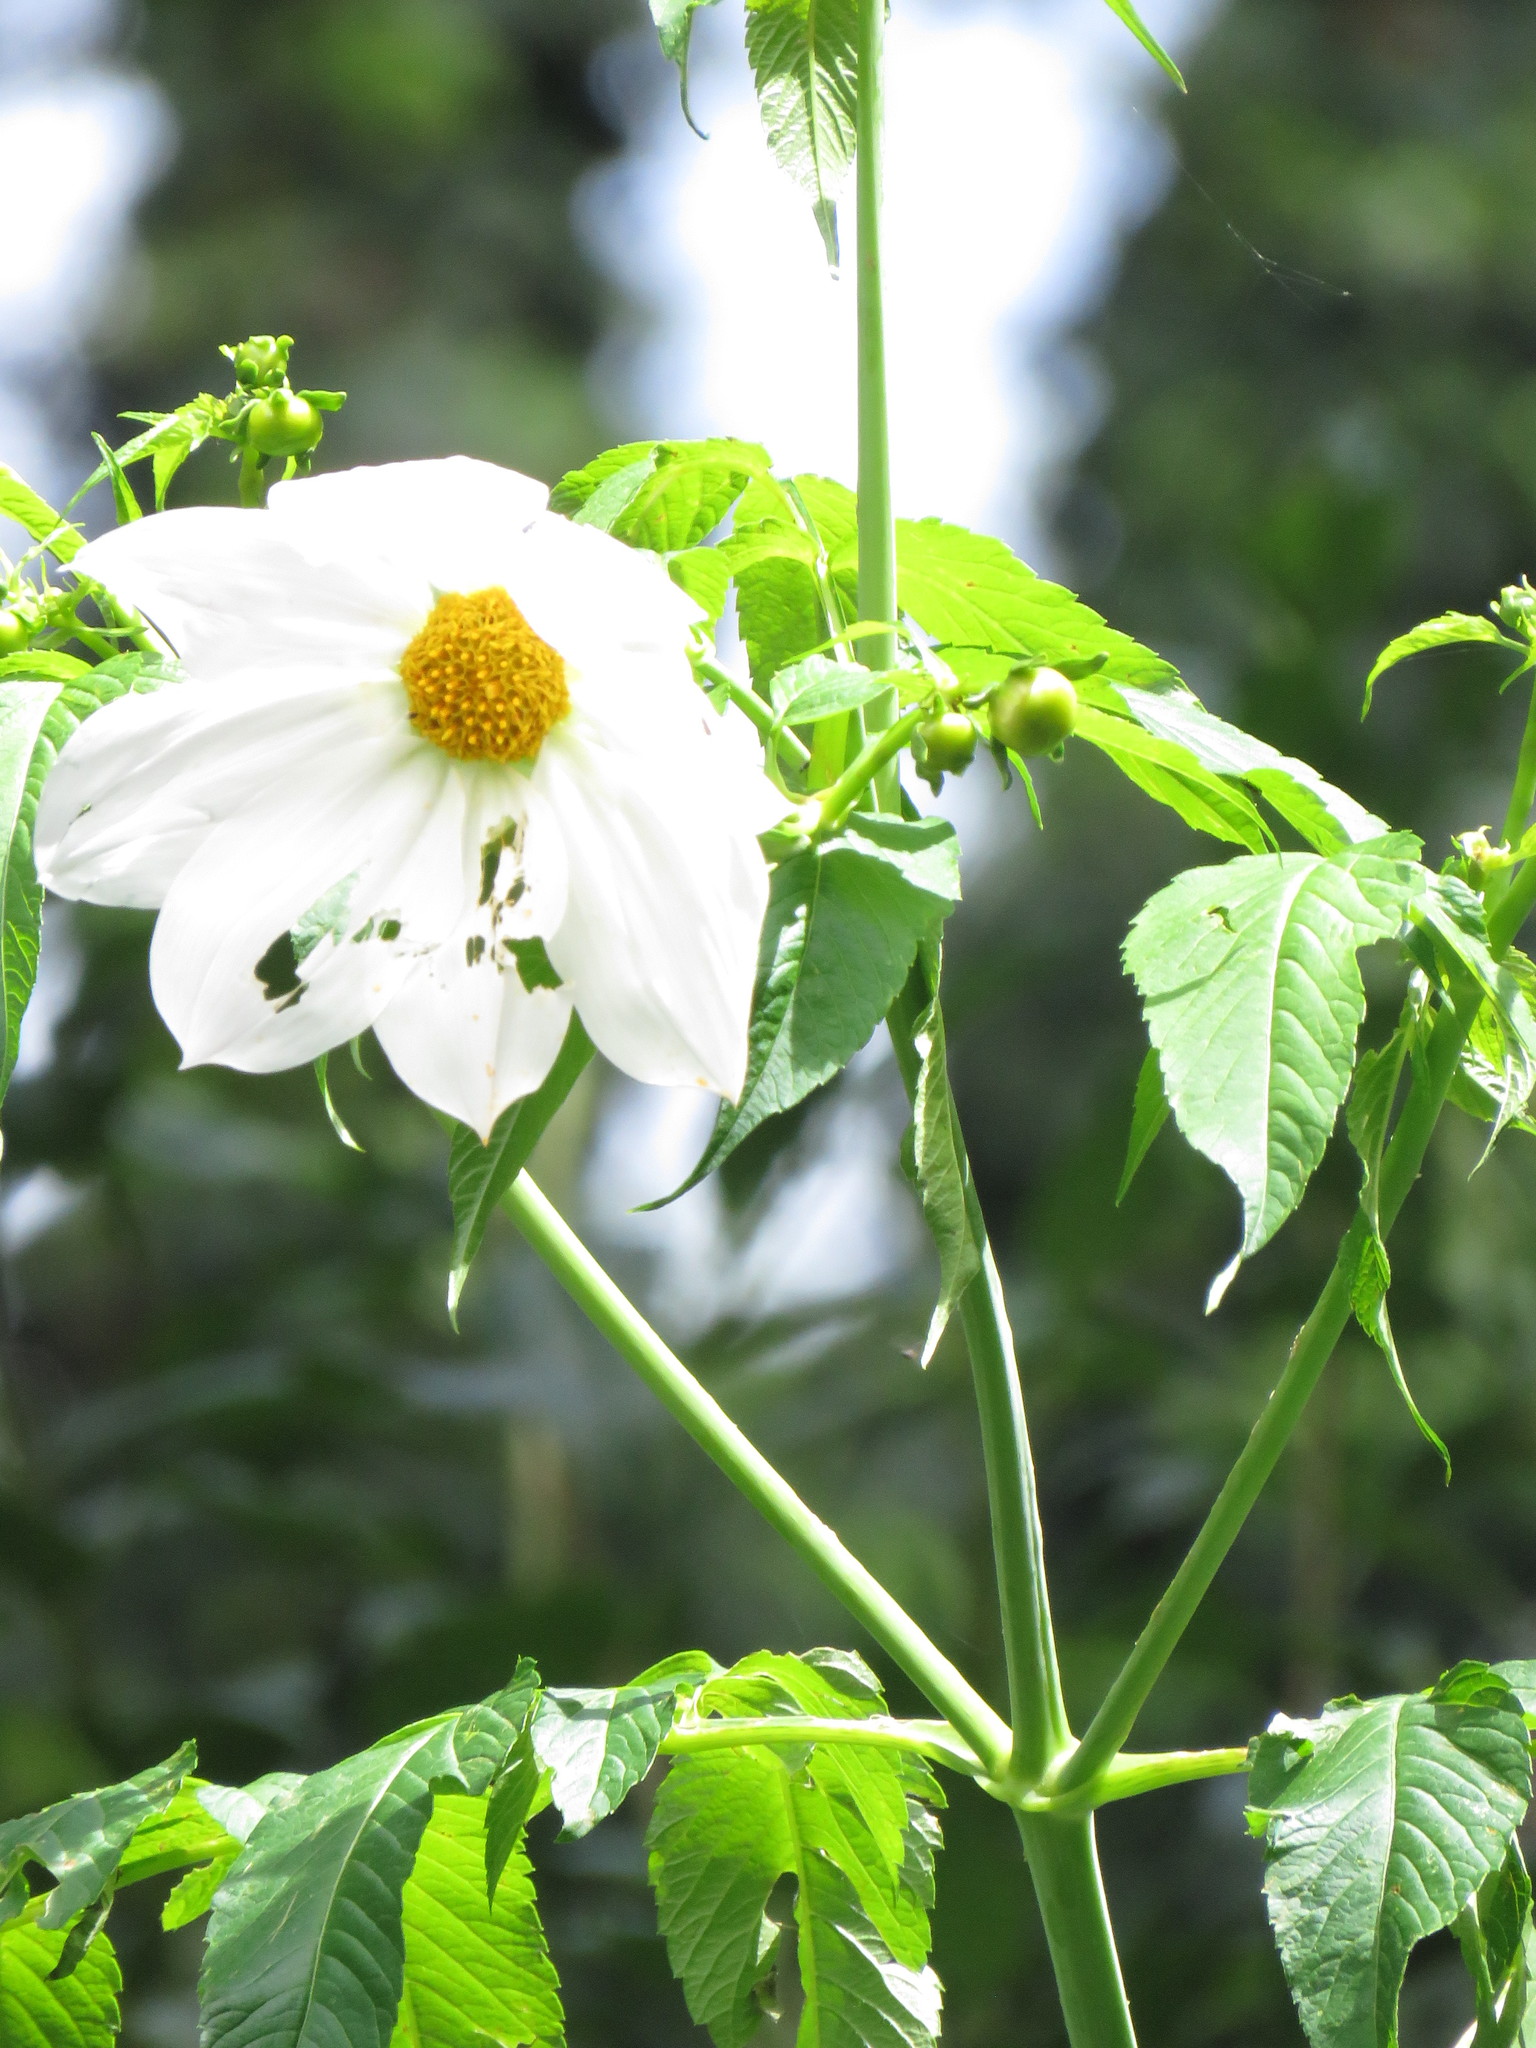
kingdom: Plantae
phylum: Tracheophyta
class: Magnoliopsida
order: Asterales
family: Asteraceae
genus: Dahlia
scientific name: Dahlia imperialis
